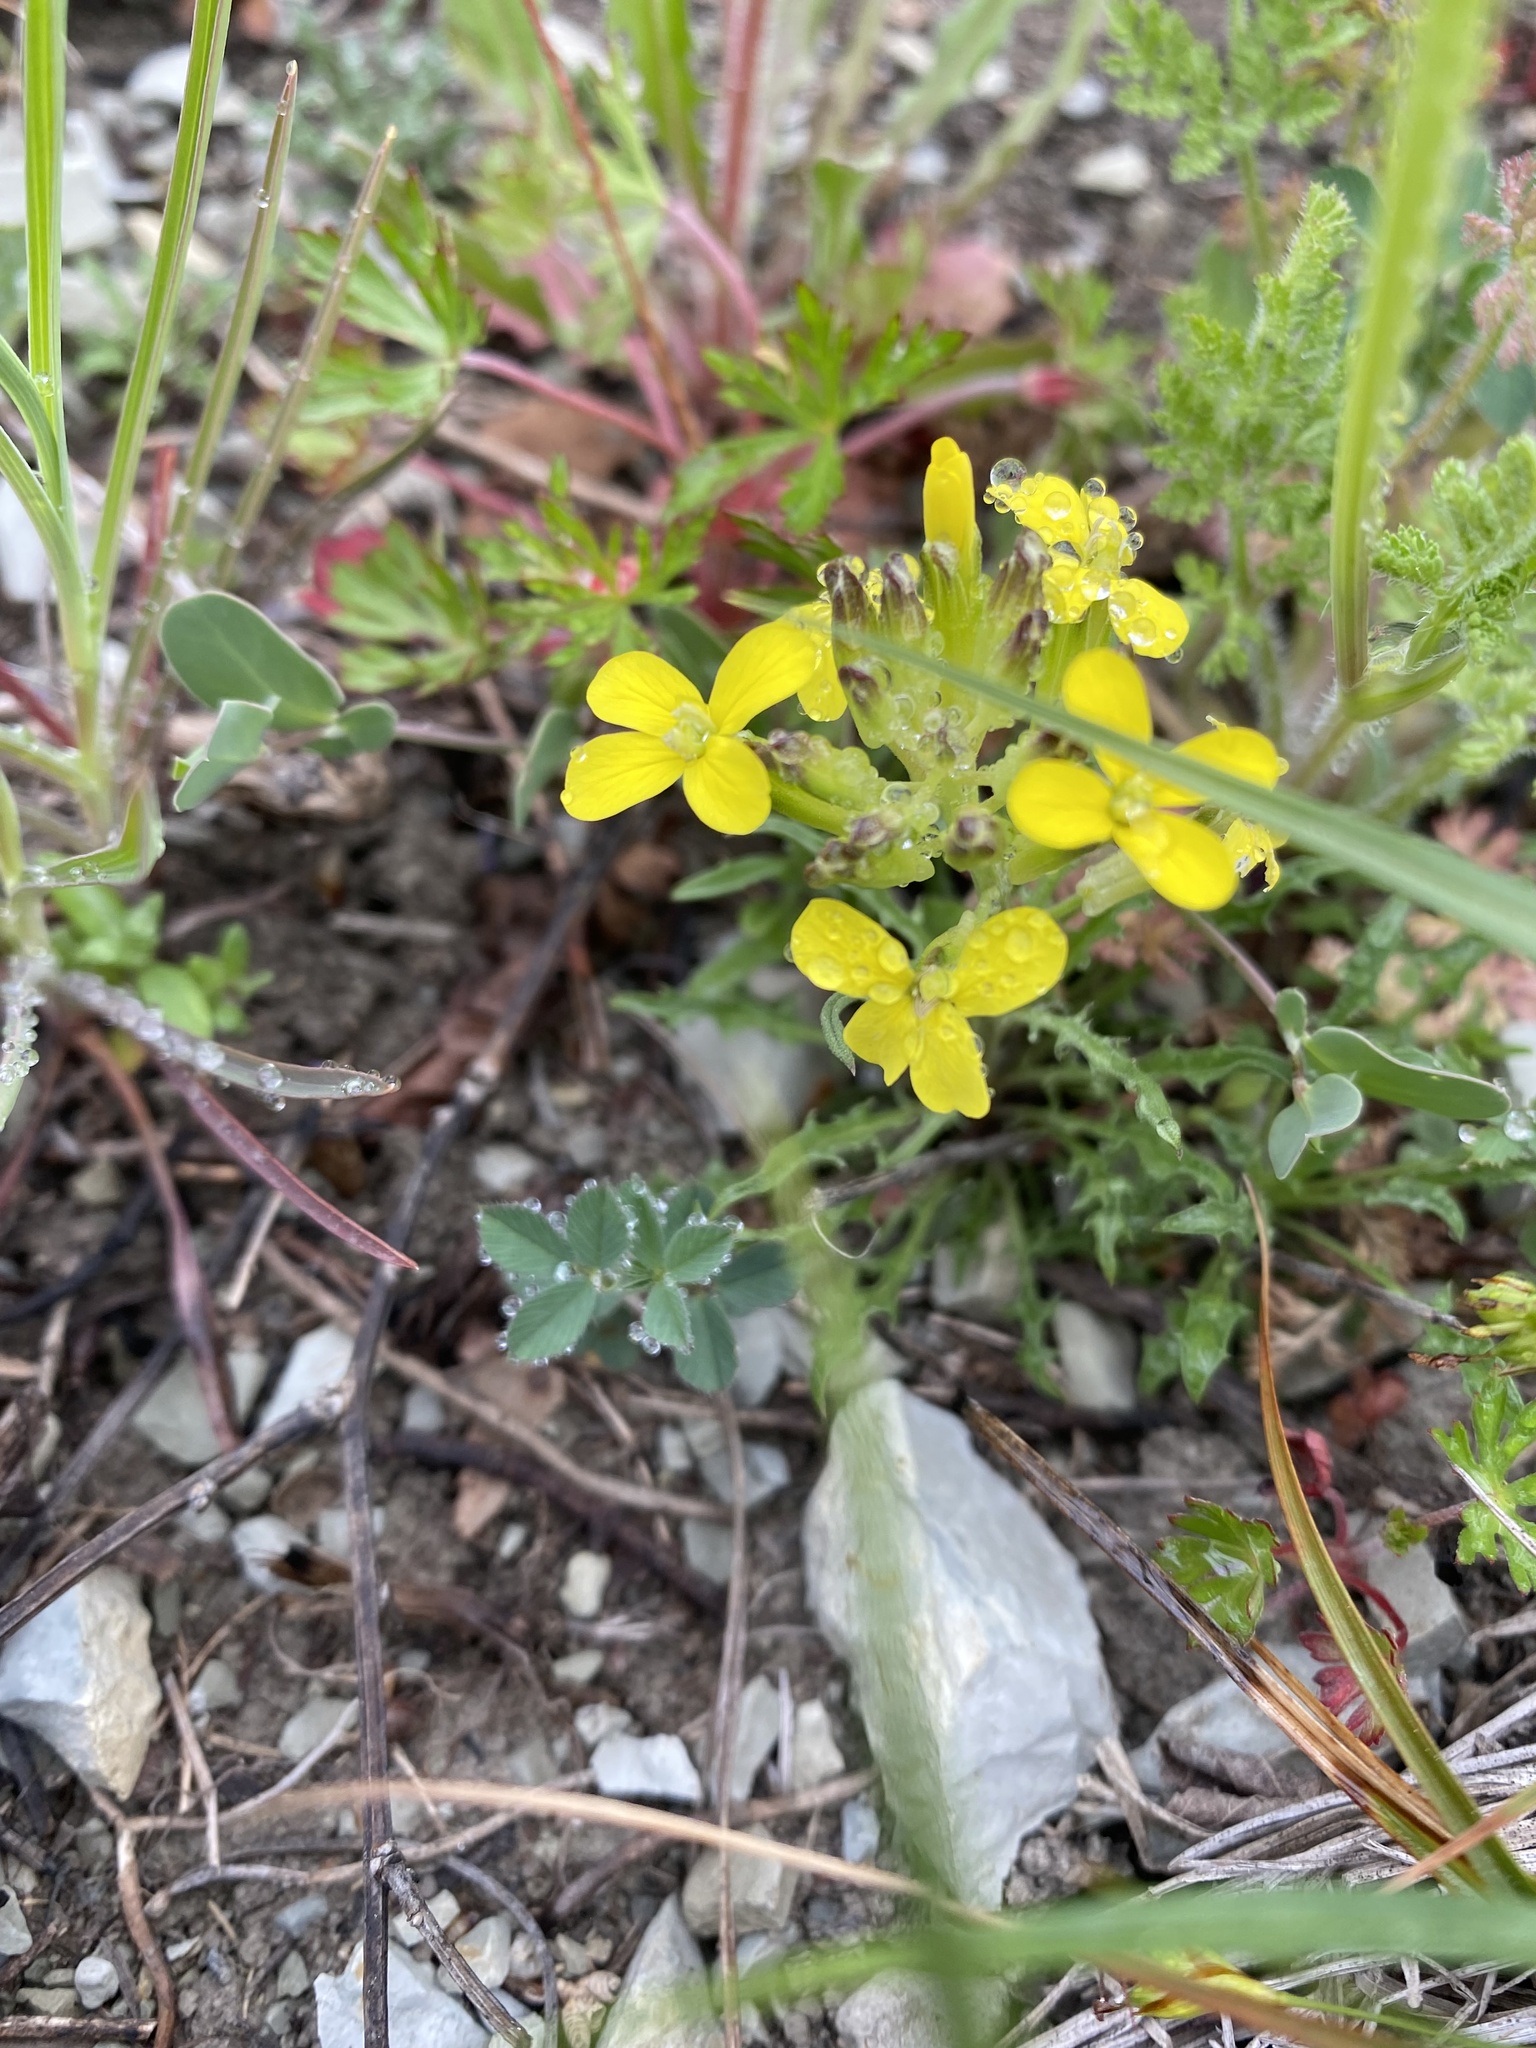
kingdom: Plantae
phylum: Tracheophyta
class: Magnoliopsida
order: Brassicales
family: Brassicaceae
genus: Erysimum
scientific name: Erysimum callicarpum
